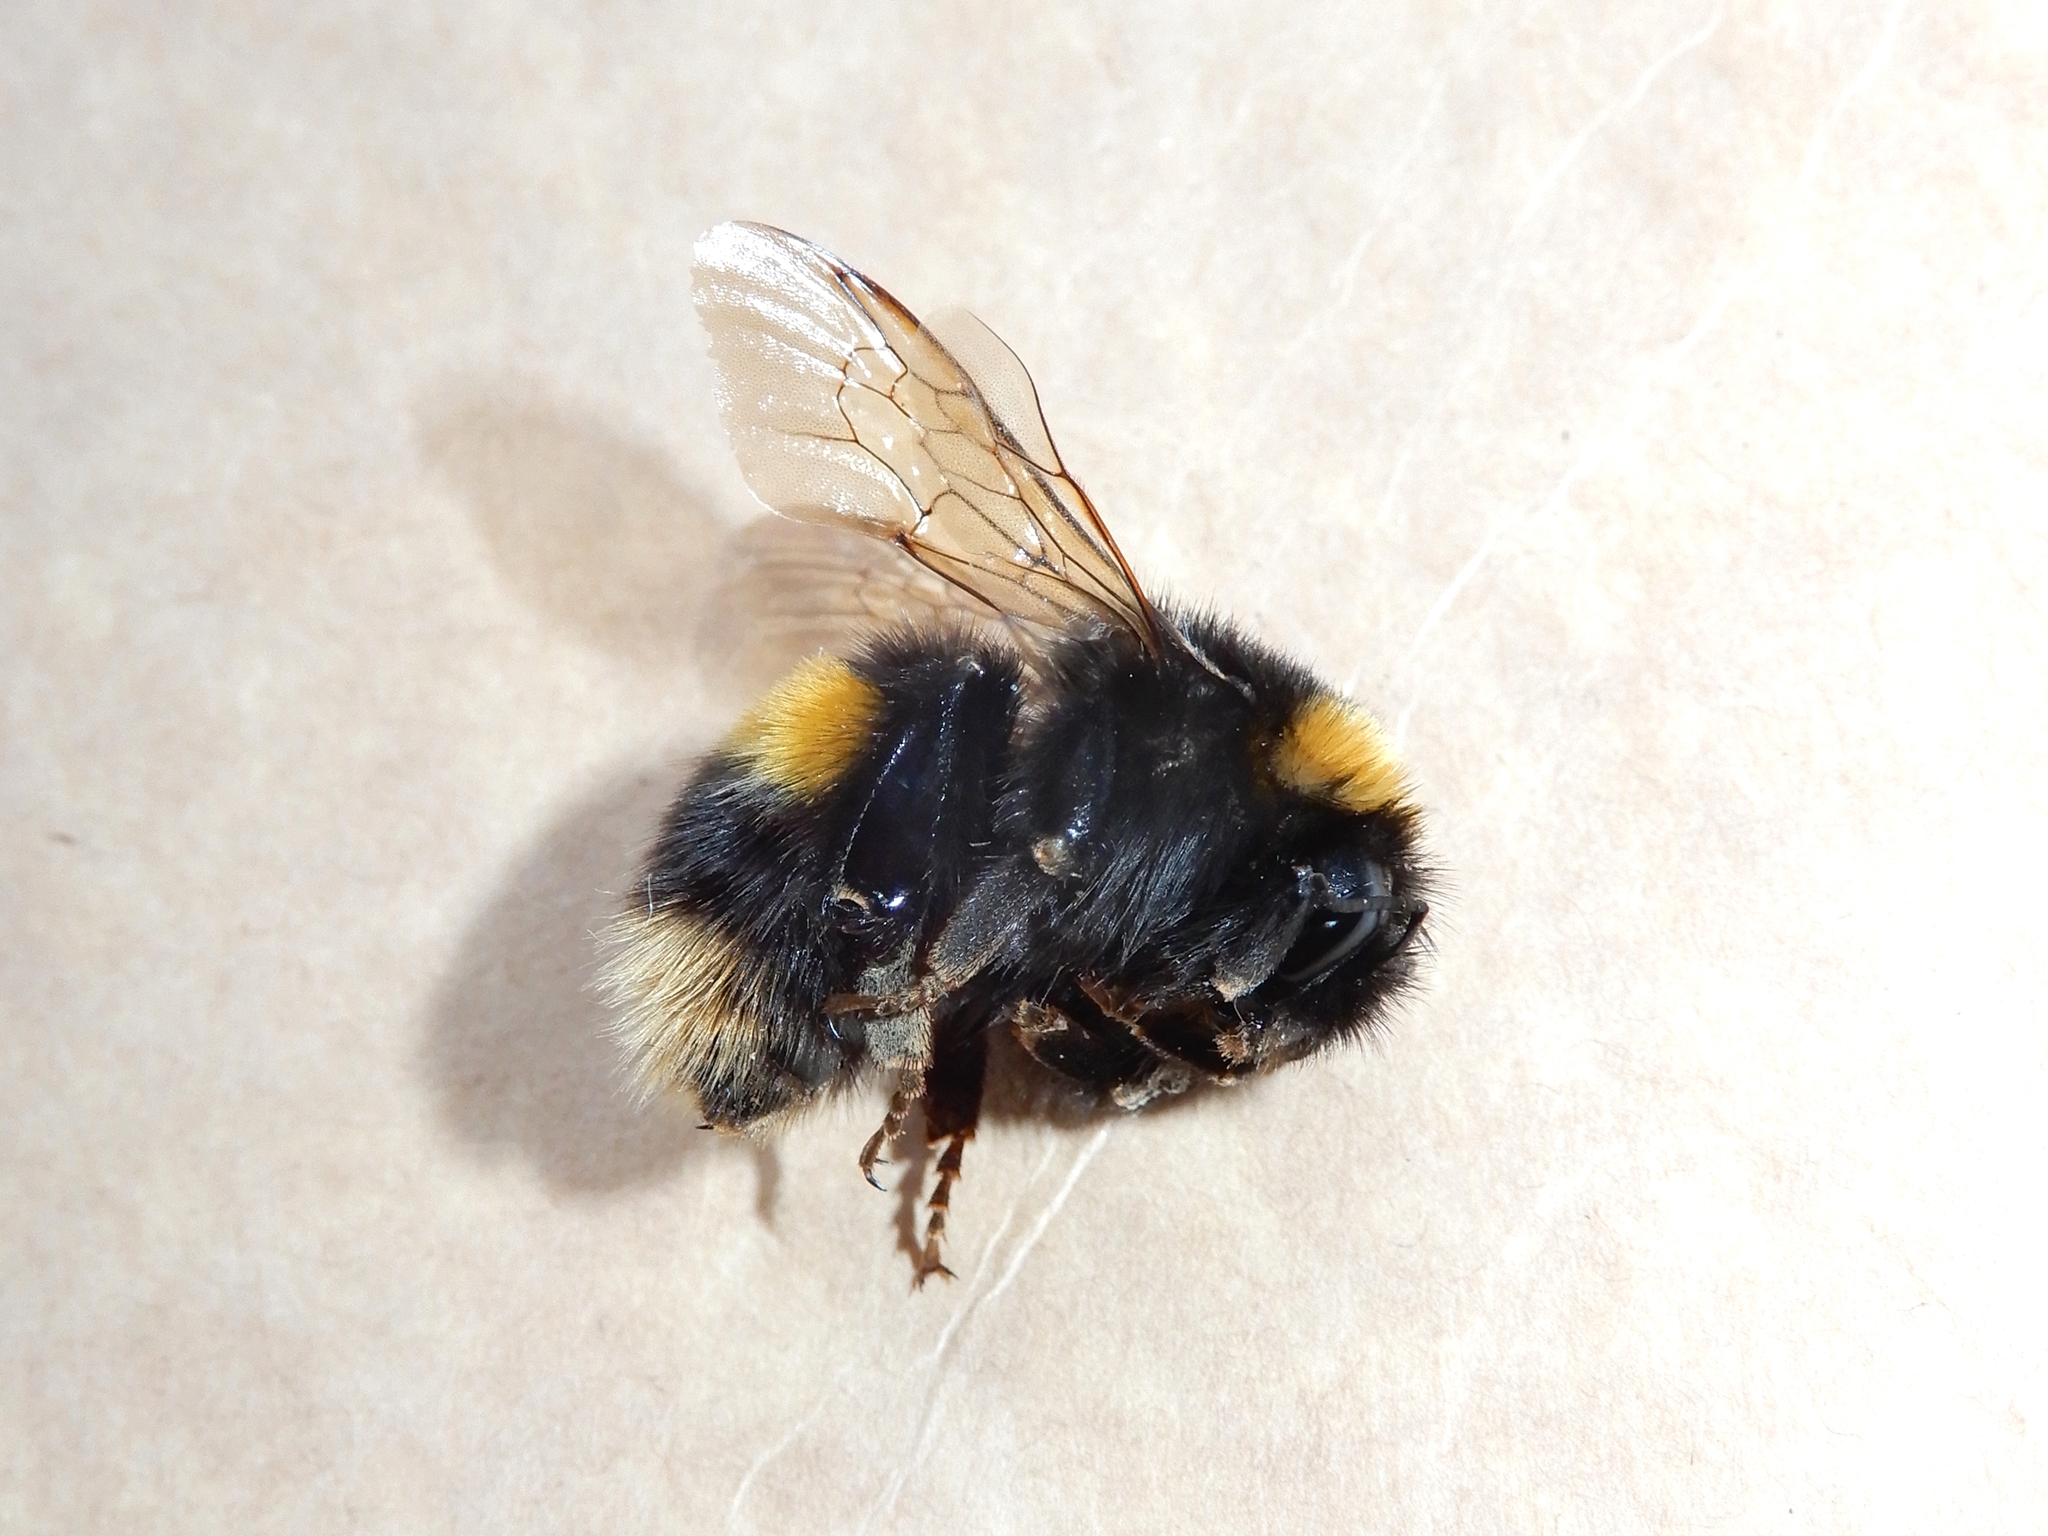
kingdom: Animalia
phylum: Arthropoda
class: Insecta
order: Hymenoptera
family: Apidae
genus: Bombus
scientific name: Bombus terrestris
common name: Buff-tailed bumblebee
